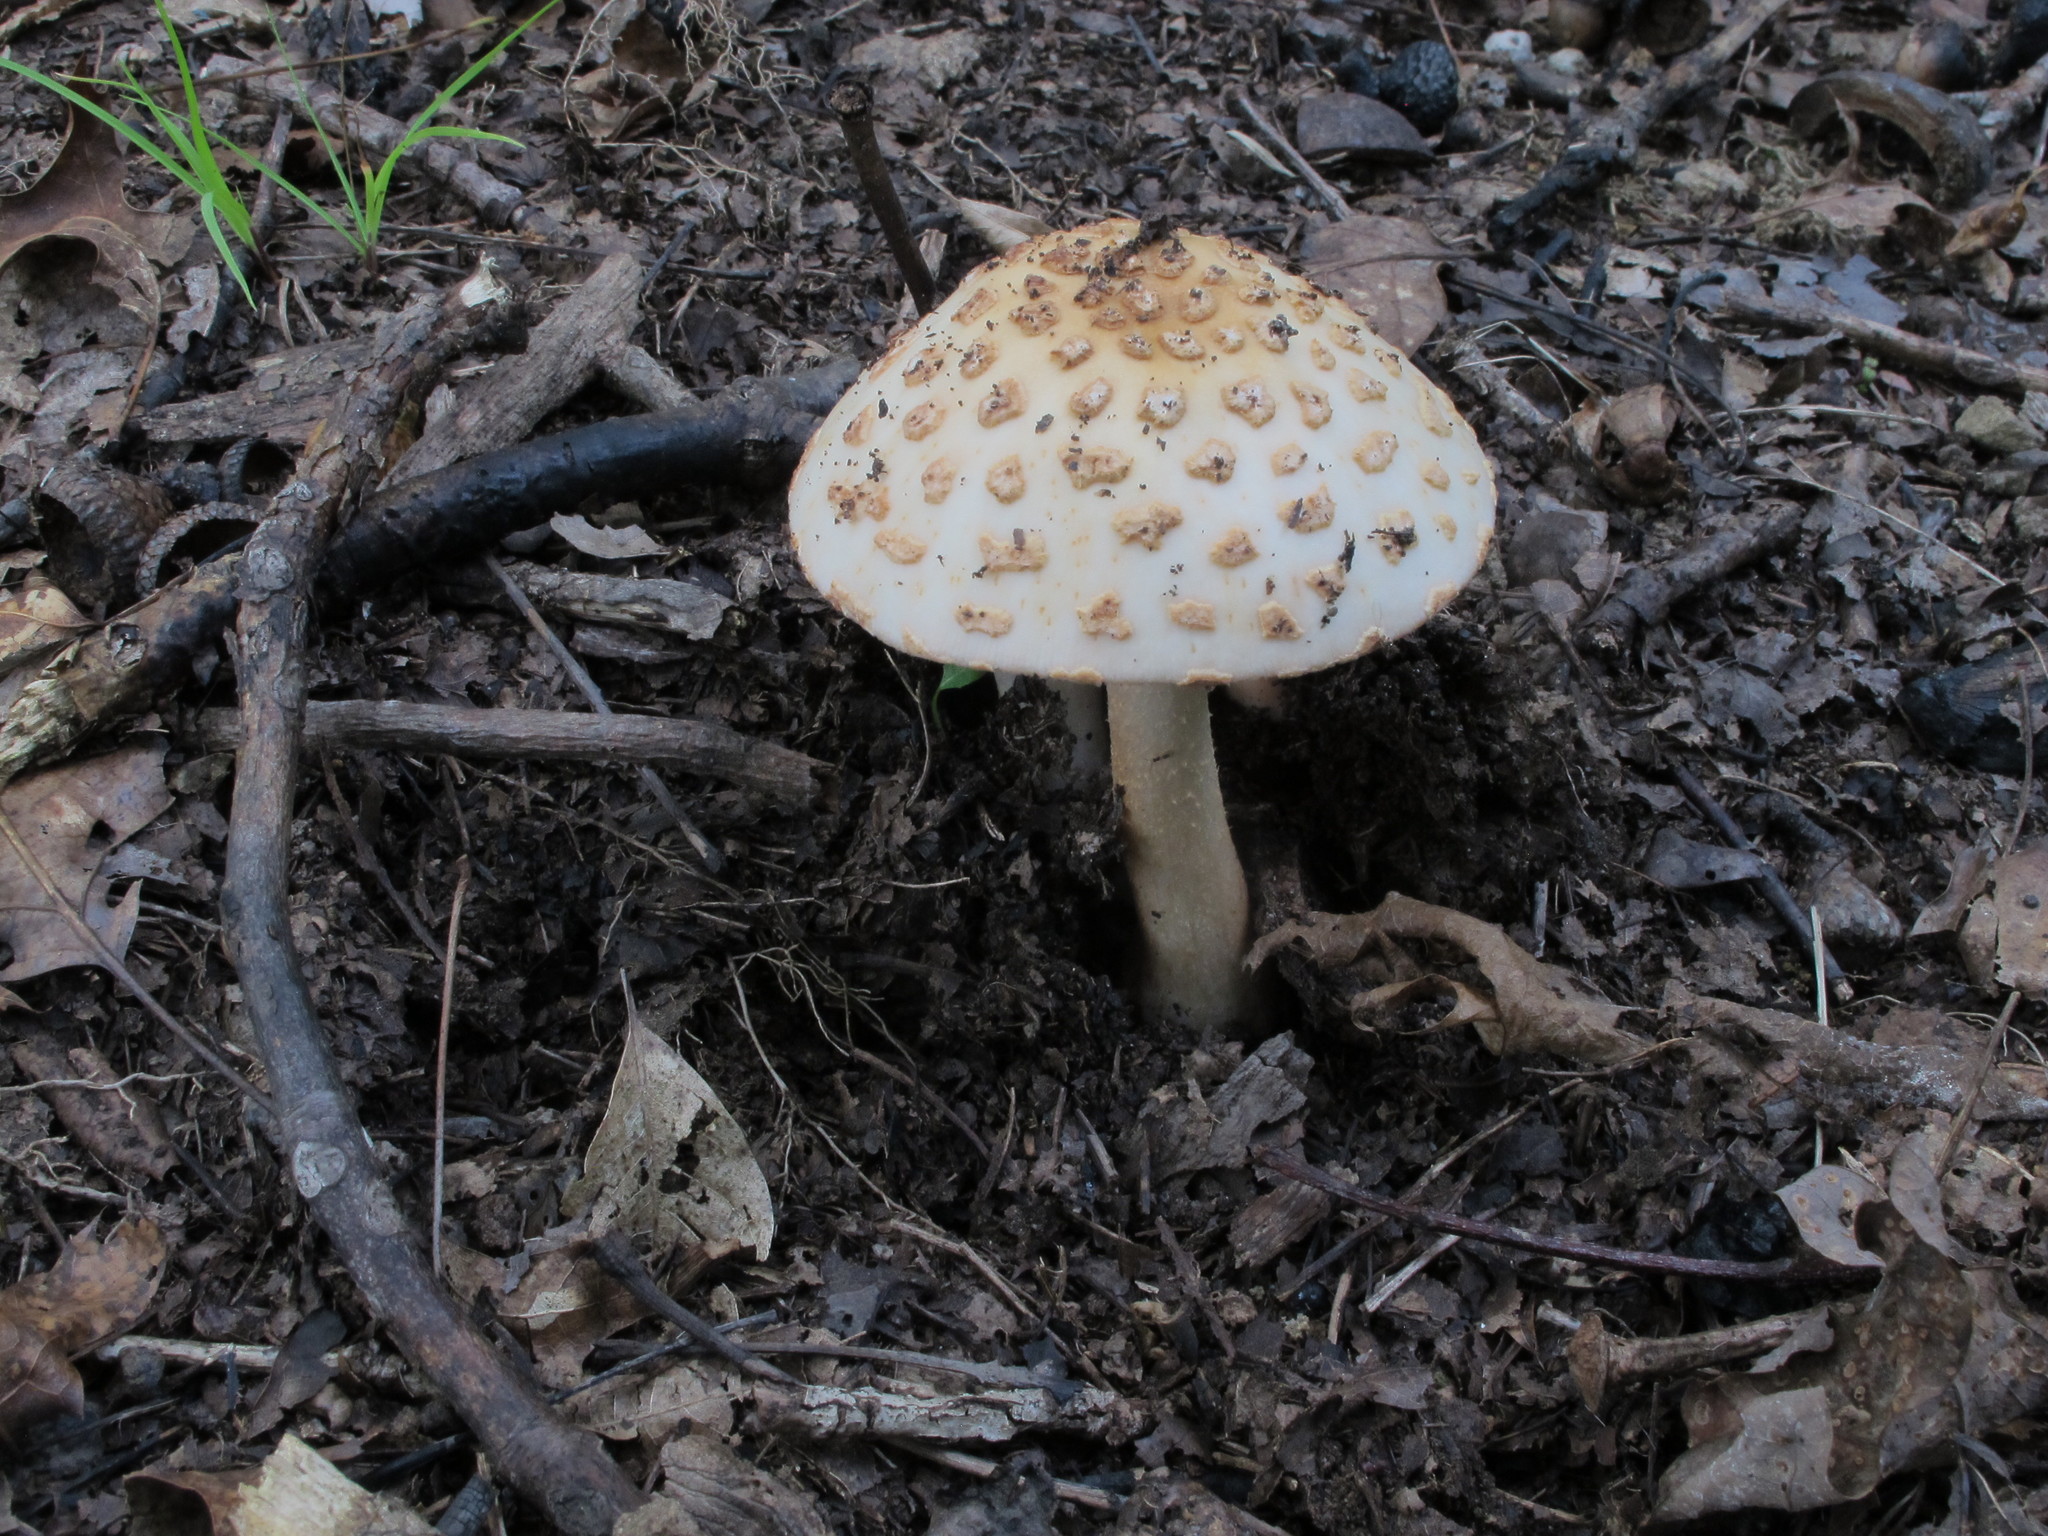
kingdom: Fungi
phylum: Basidiomycota
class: Agaricomycetes
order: Agaricales
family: Amanitaceae
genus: Amanita
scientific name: Amanita rubescens
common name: Blusher
